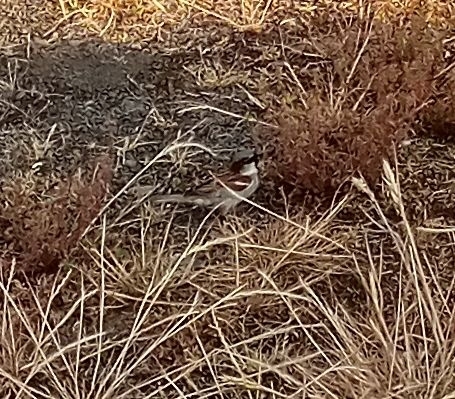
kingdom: Animalia
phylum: Chordata
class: Aves
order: Passeriformes
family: Passeridae
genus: Passer
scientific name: Passer domesticus
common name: House sparrow
